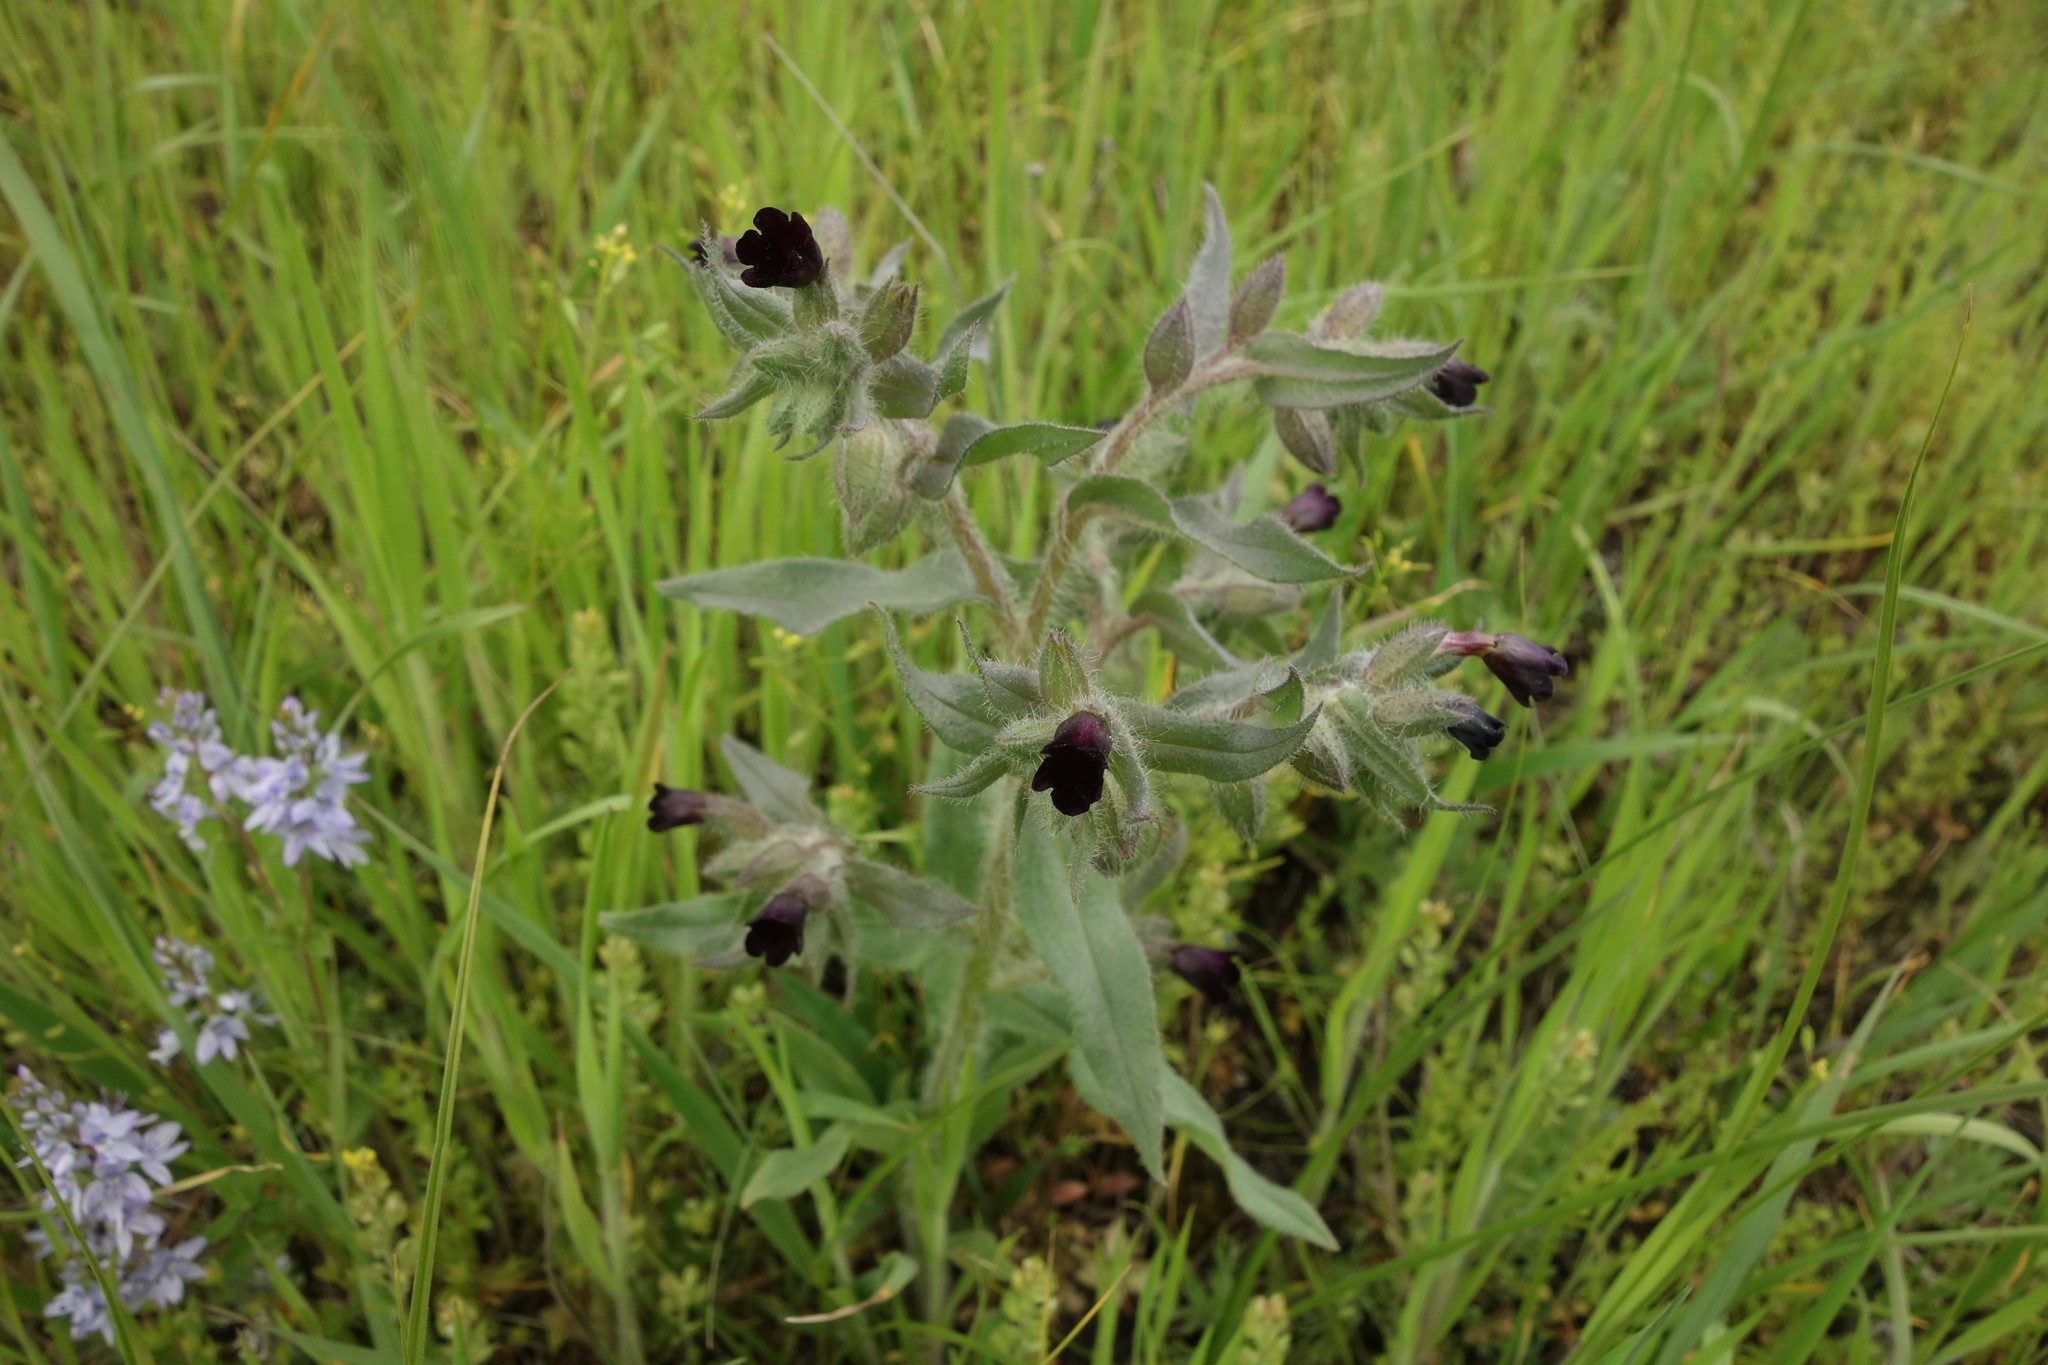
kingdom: Plantae
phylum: Tracheophyta
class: Magnoliopsida
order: Boraginales
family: Boraginaceae
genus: Nonea
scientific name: Nonea pulla
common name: Brown nonea
